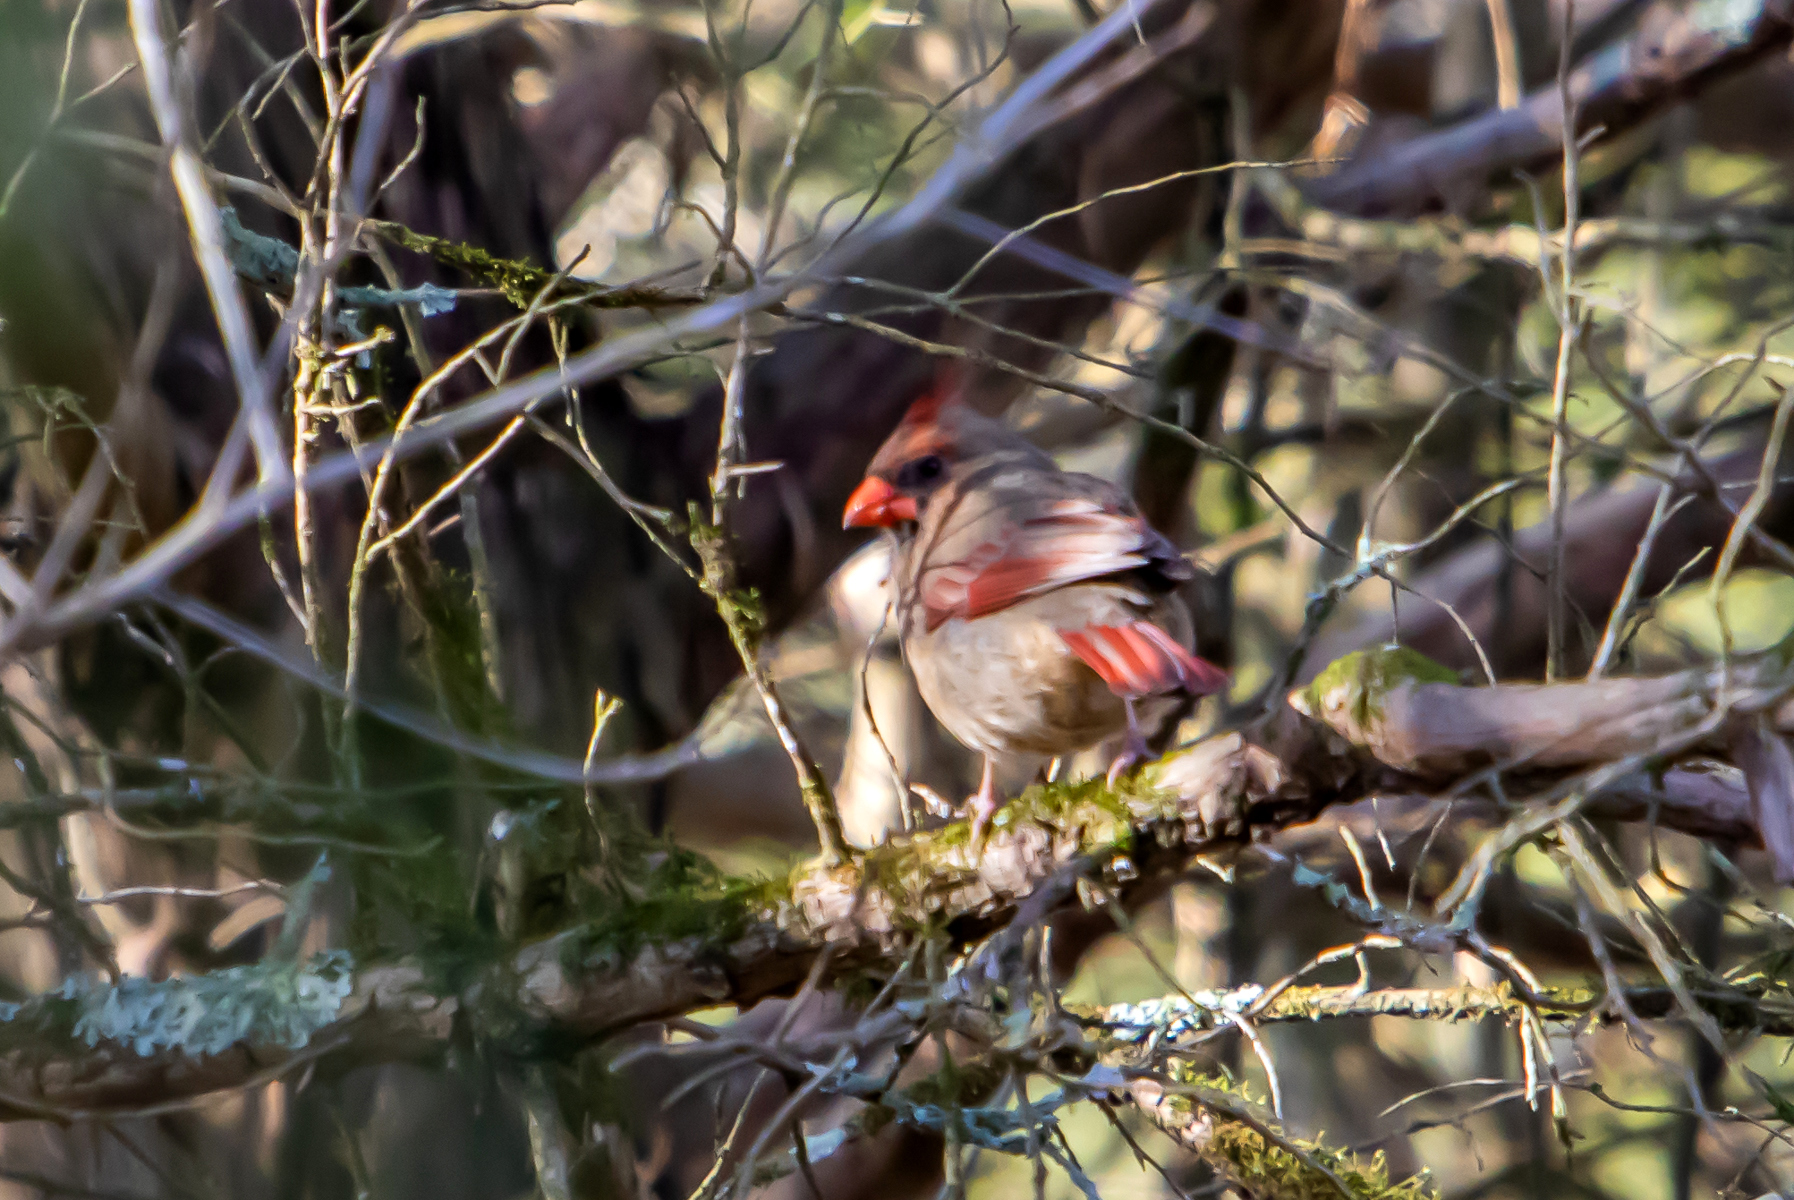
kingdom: Animalia
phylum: Chordata
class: Aves
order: Passeriformes
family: Cardinalidae
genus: Cardinalis
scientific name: Cardinalis cardinalis
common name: Northern cardinal
